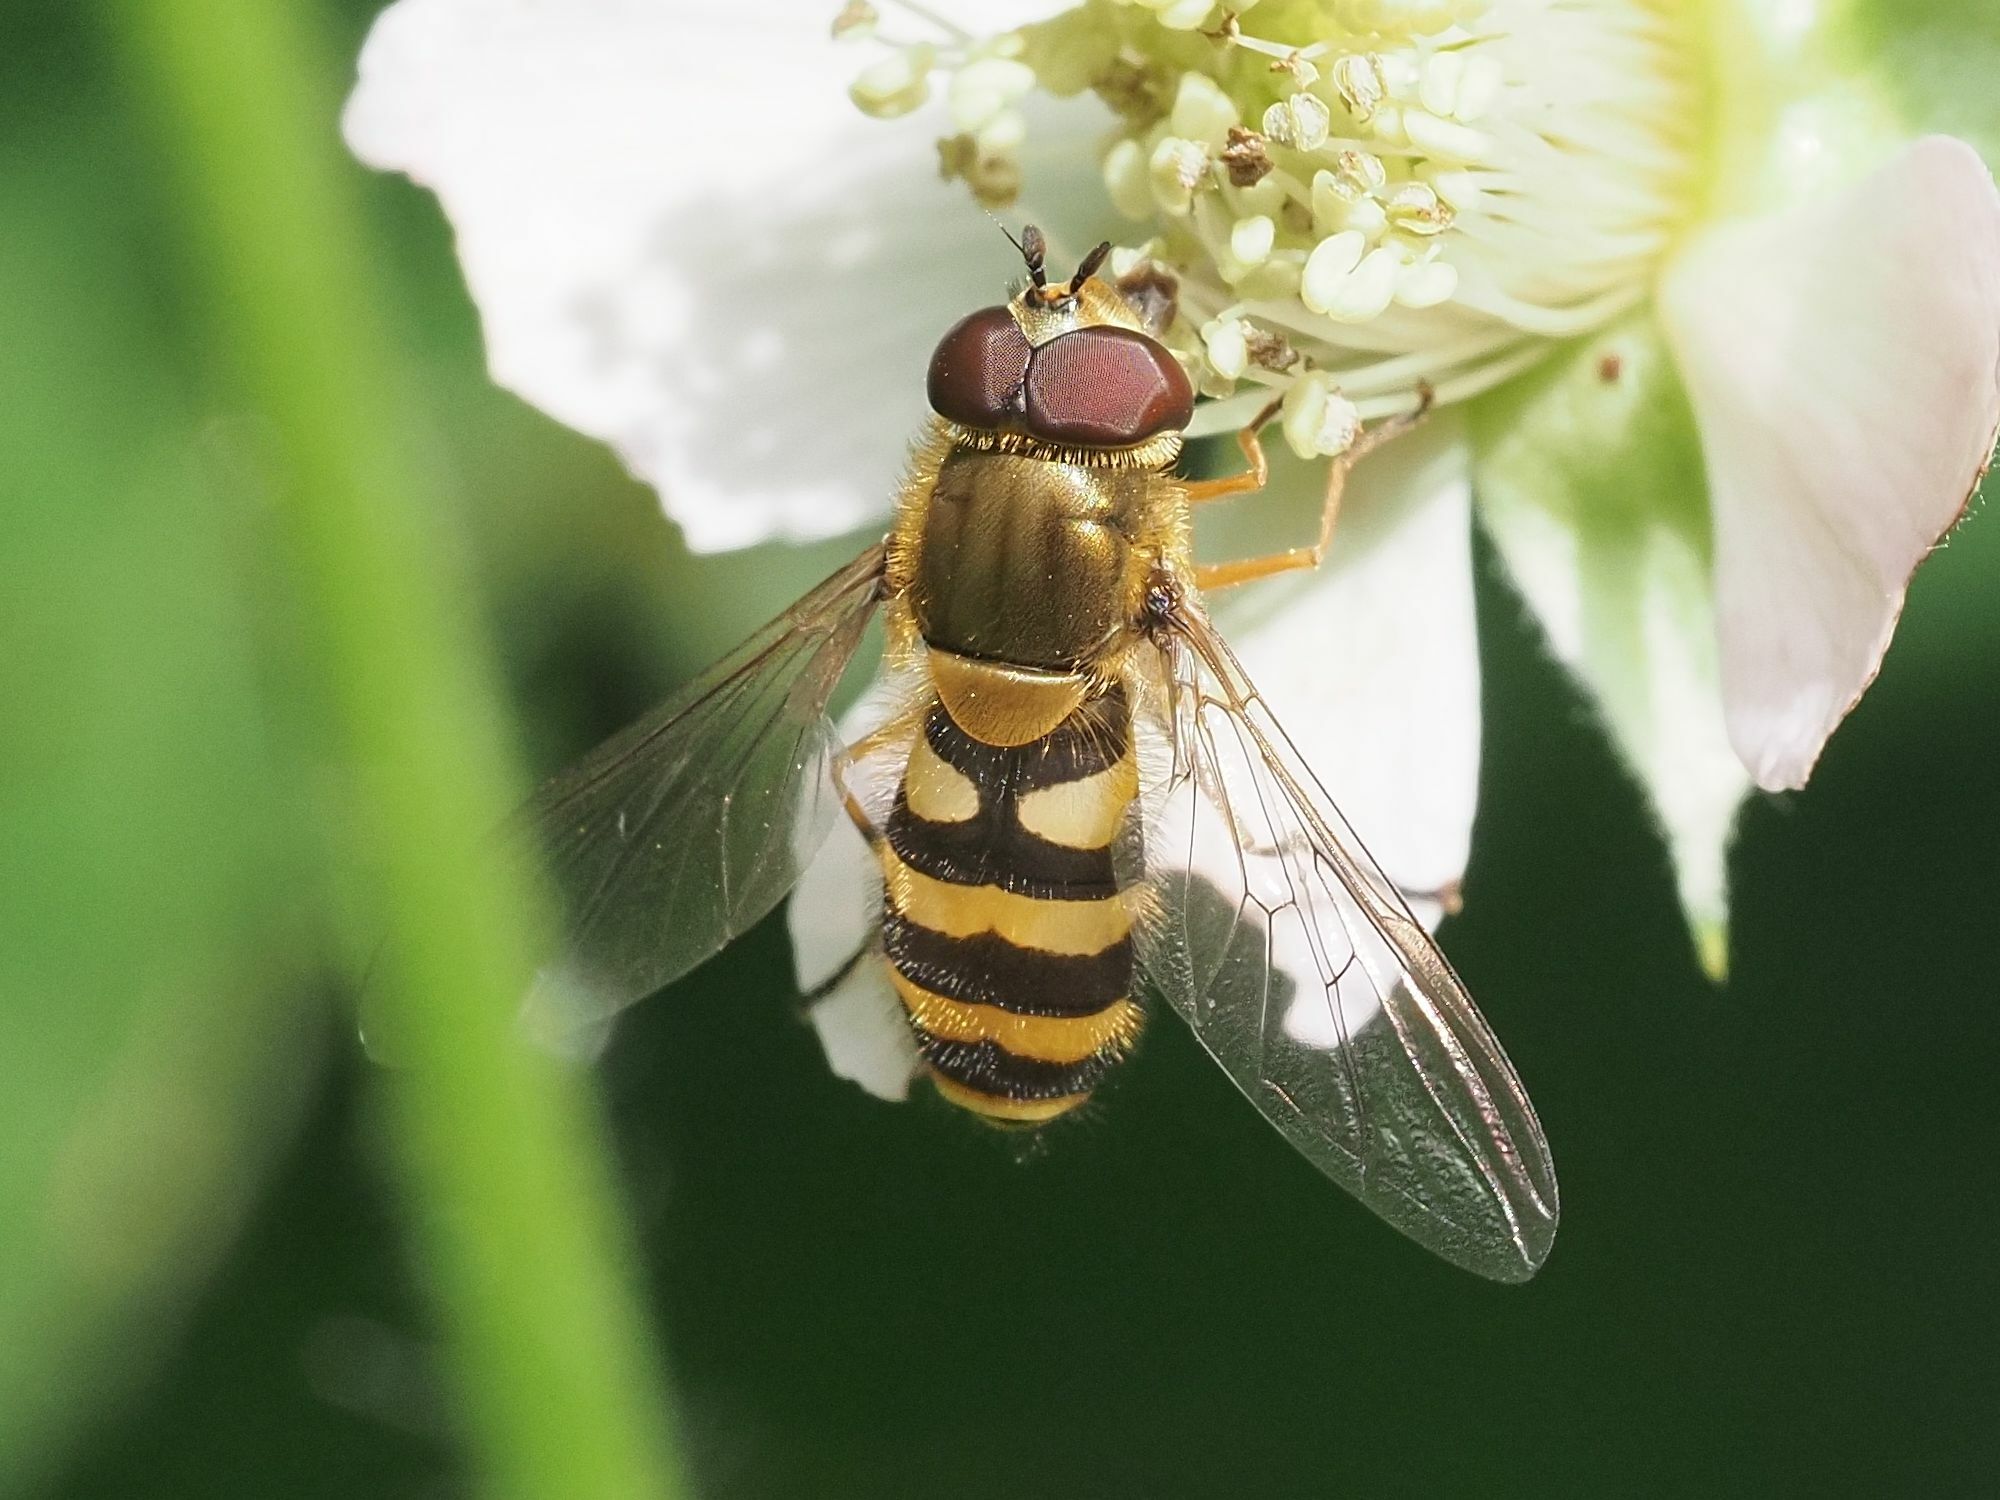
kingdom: Animalia
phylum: Arthropoda
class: Insecta
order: Diptera
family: Syrphidae
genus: Syrphus
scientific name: Syrphus
